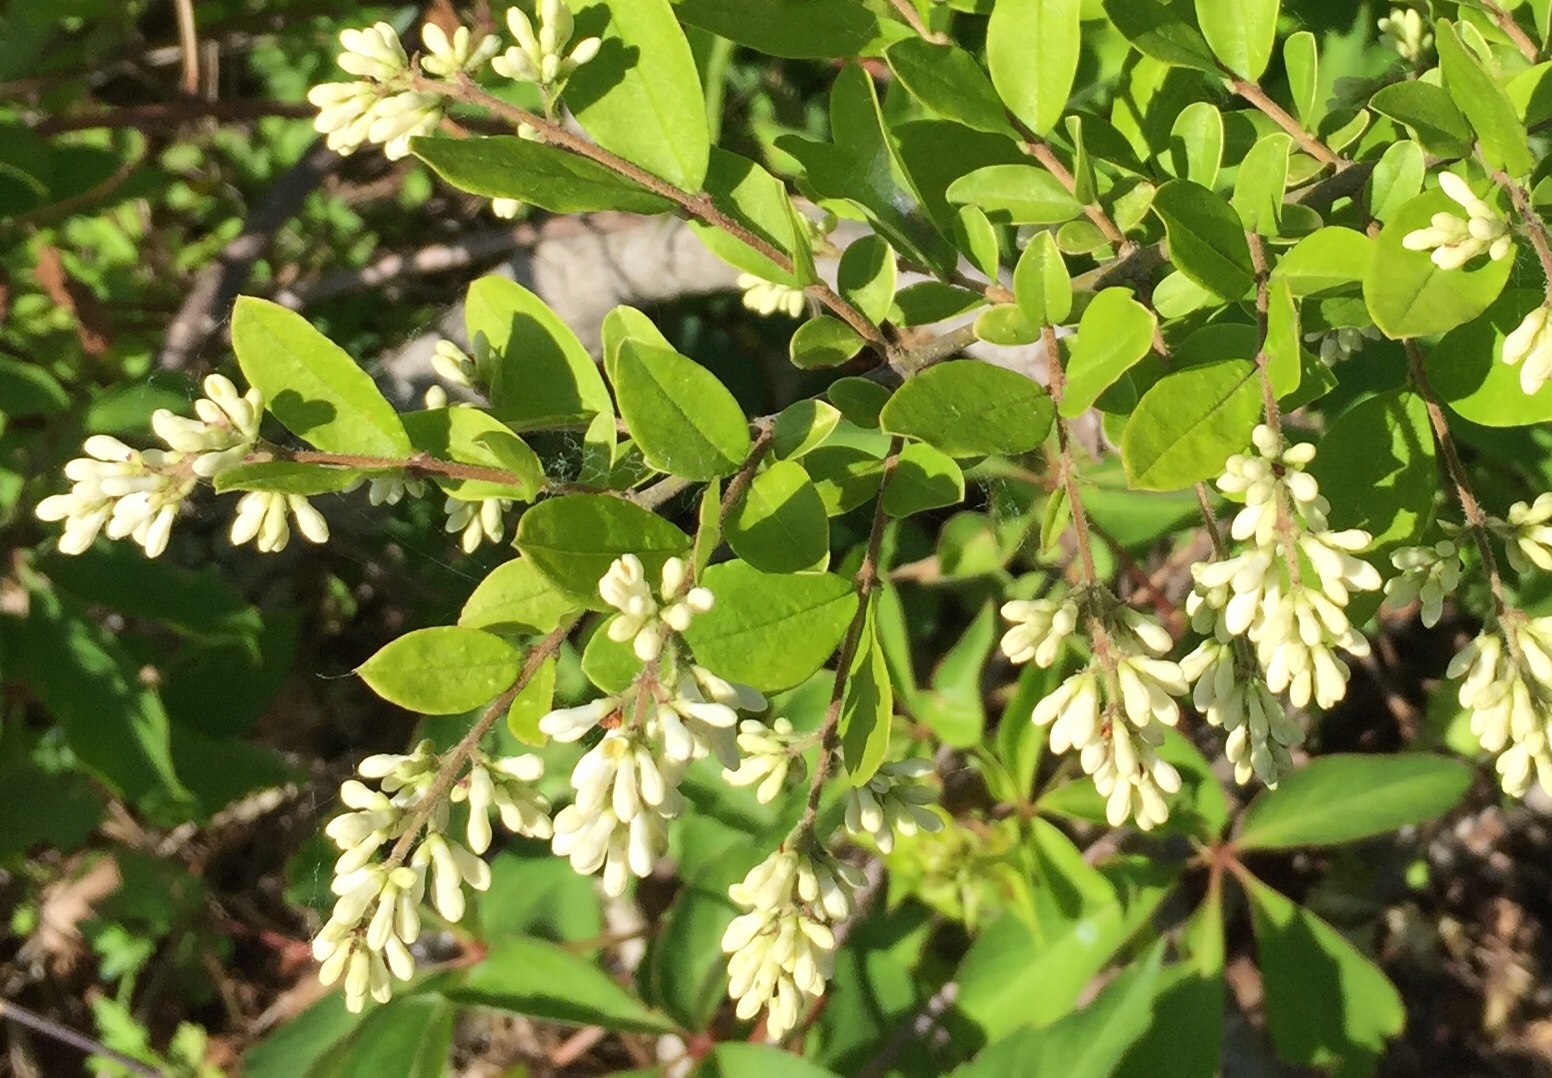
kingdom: Plantae
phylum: Tracheophyta
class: Magnoliopsida
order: Lamiales
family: Oleaceae
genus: Ligustrum
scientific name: Ligustrum obtusifolium
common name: Border privet
